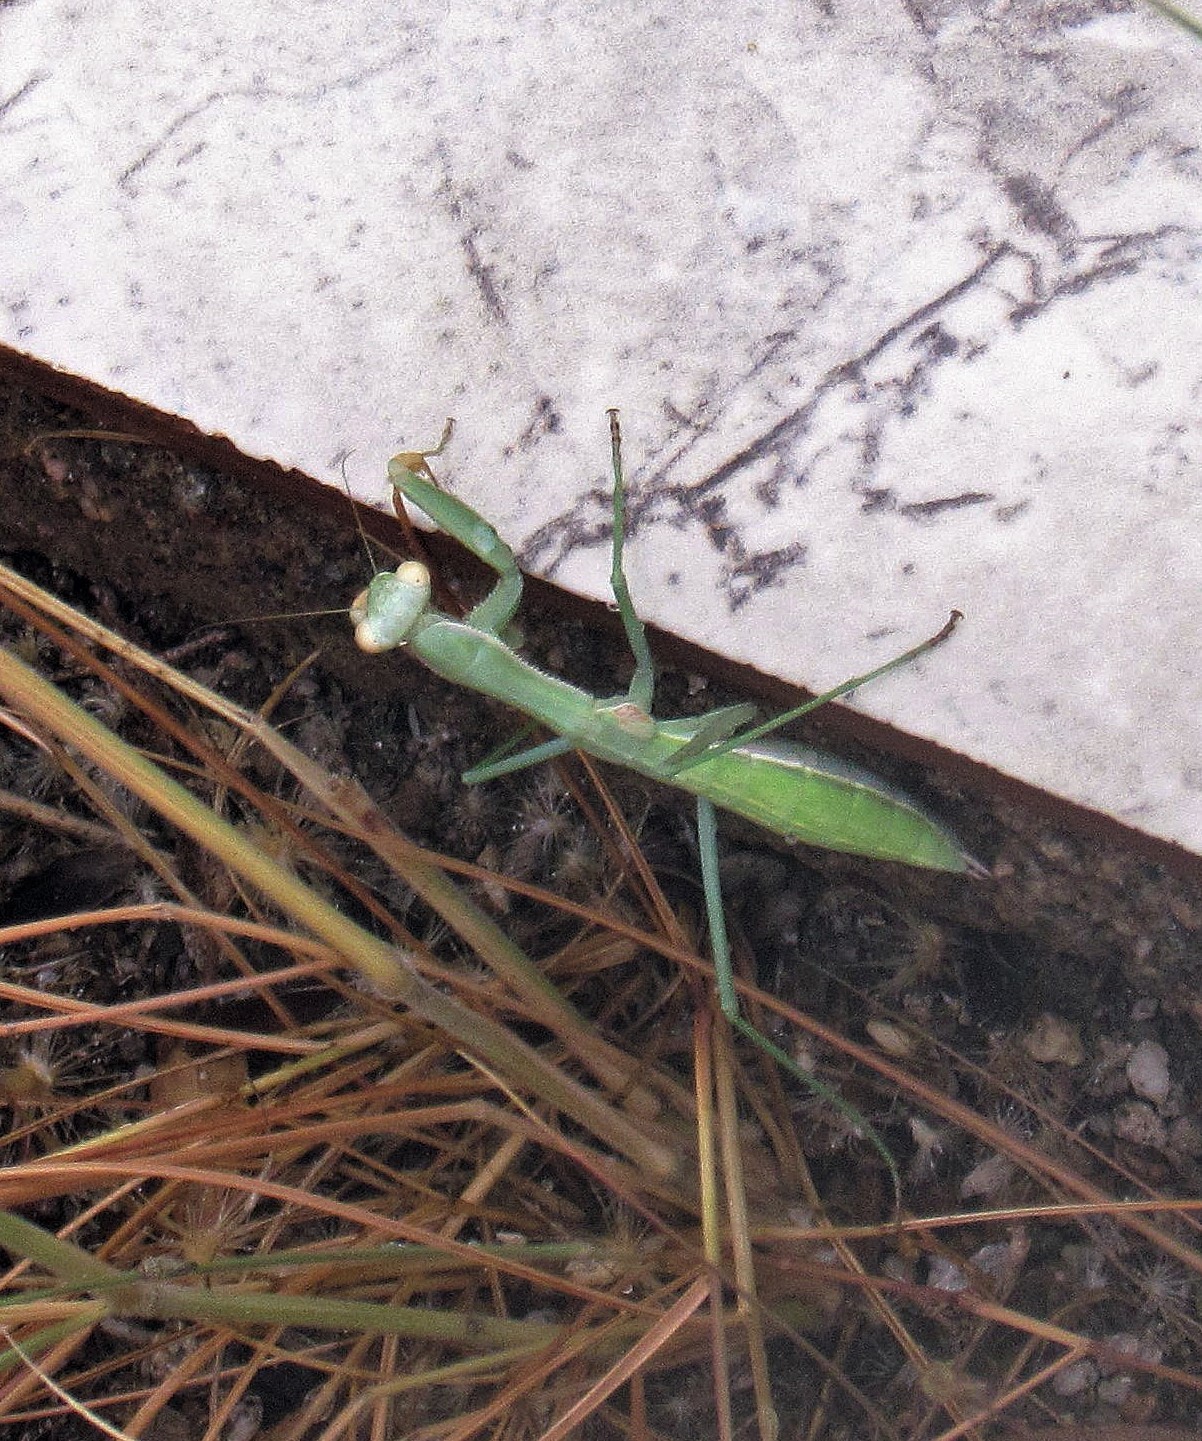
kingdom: Animalia
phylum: Arthropoda
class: Insecta
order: Mantodea
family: Coptopterygidae
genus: Coptopteryx
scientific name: Coptopteryx argentina
